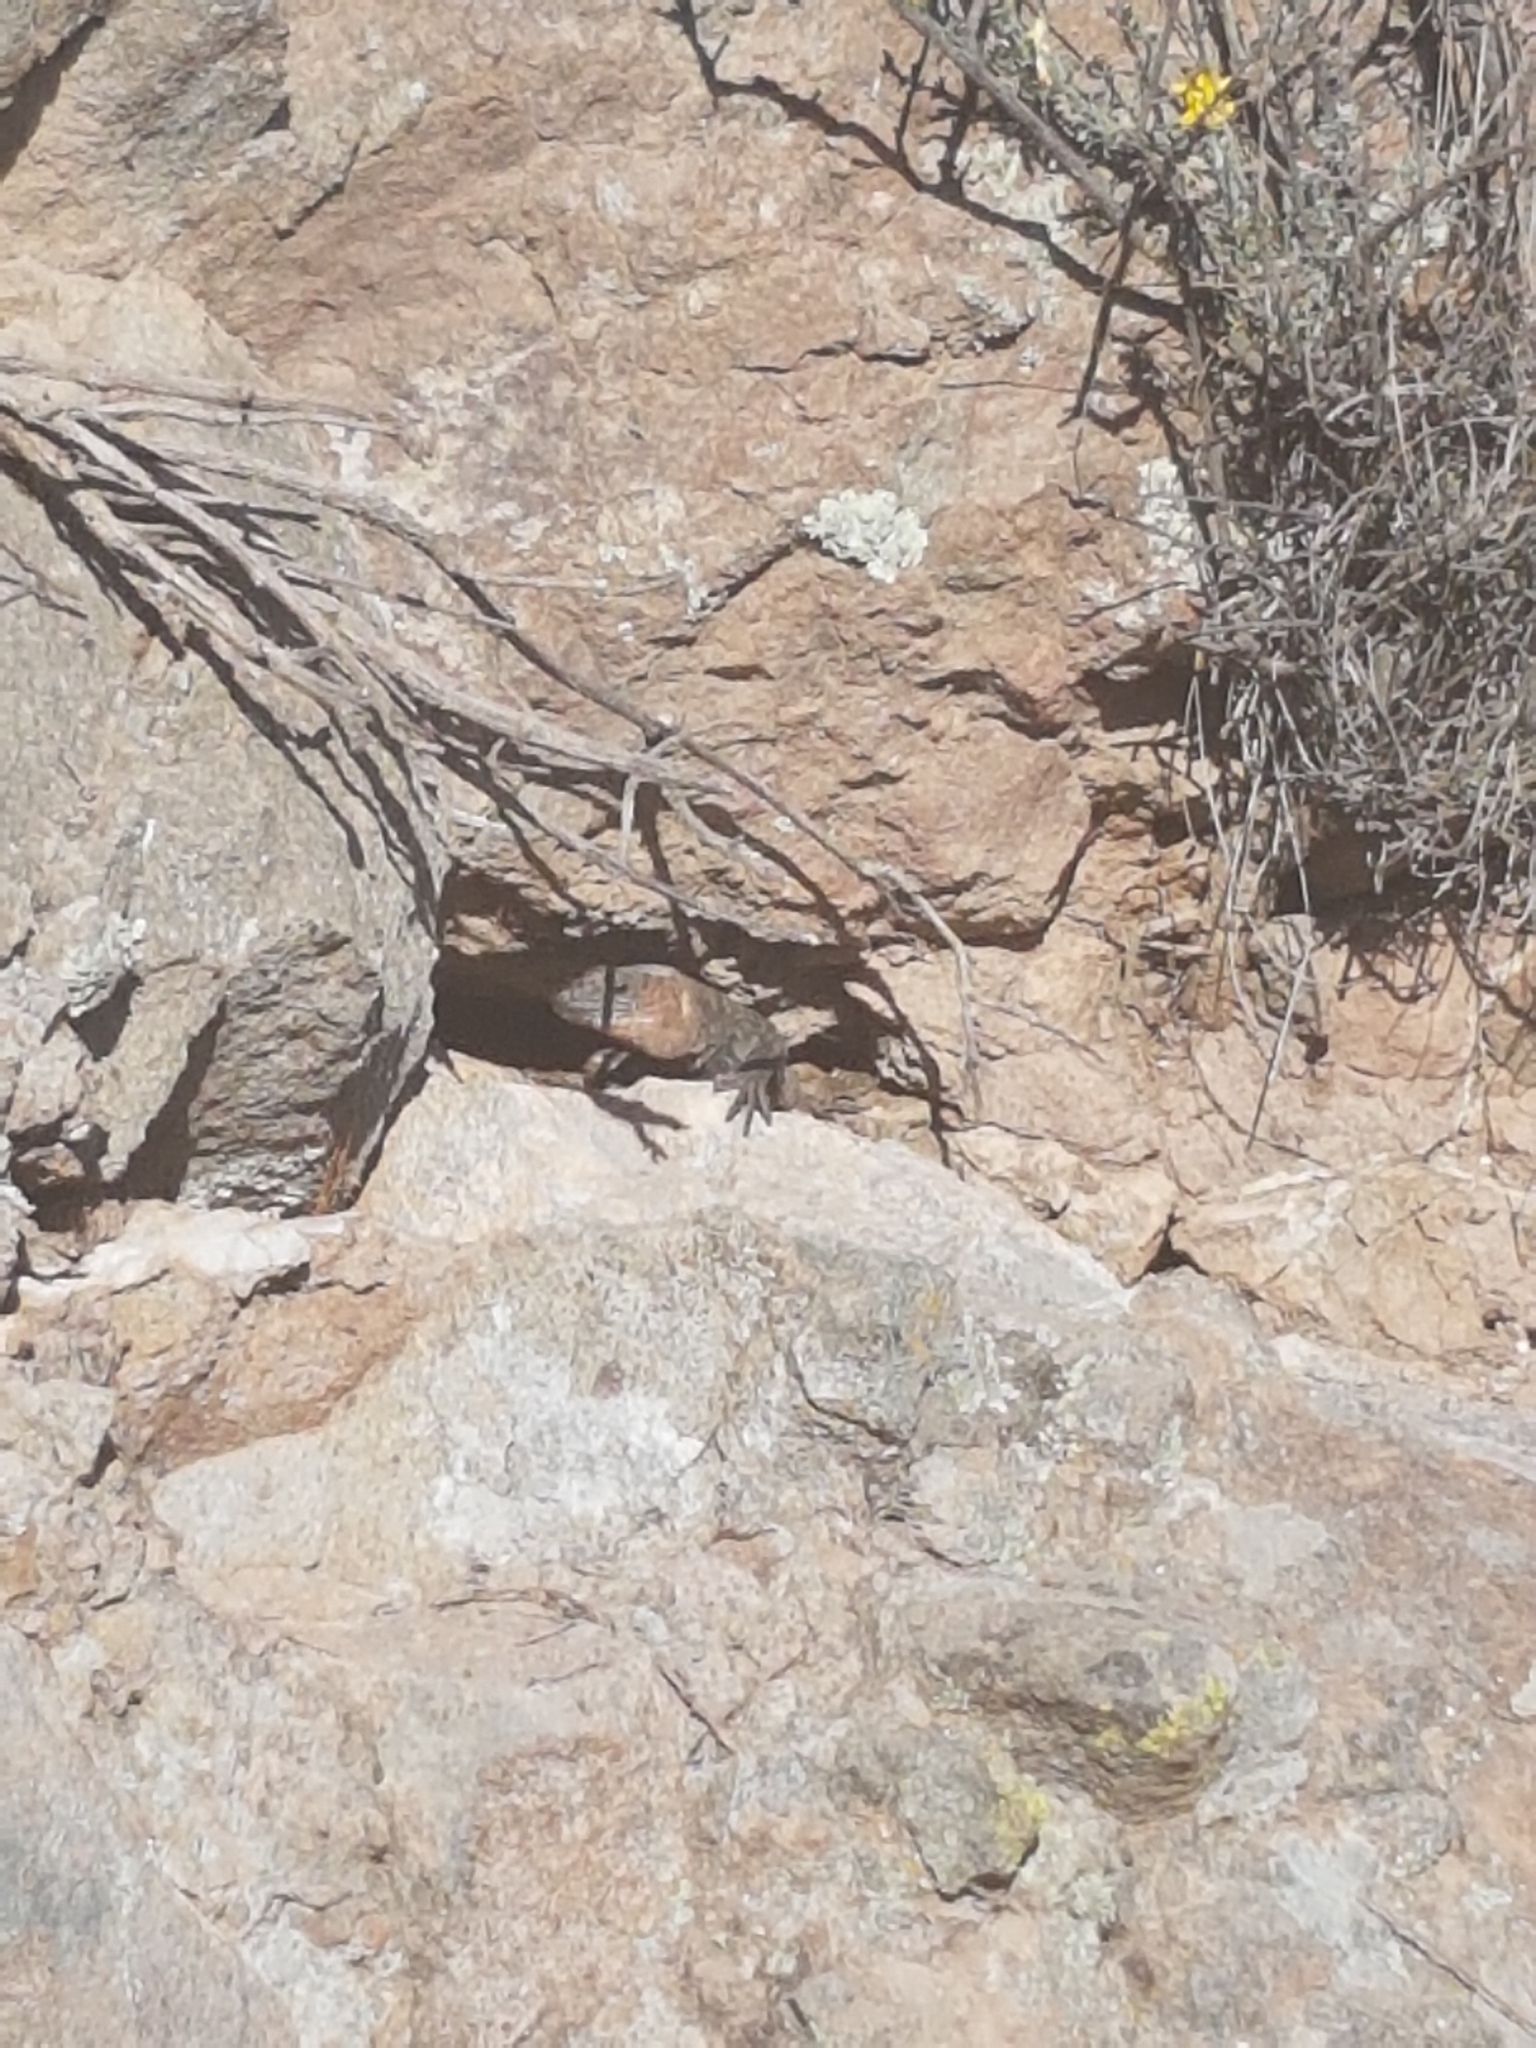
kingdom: Animalia
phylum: Chordata
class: Squamata
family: Lacertidae
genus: Gallotia
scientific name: Gallotia stehlini
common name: Gran canaria giant lizard
